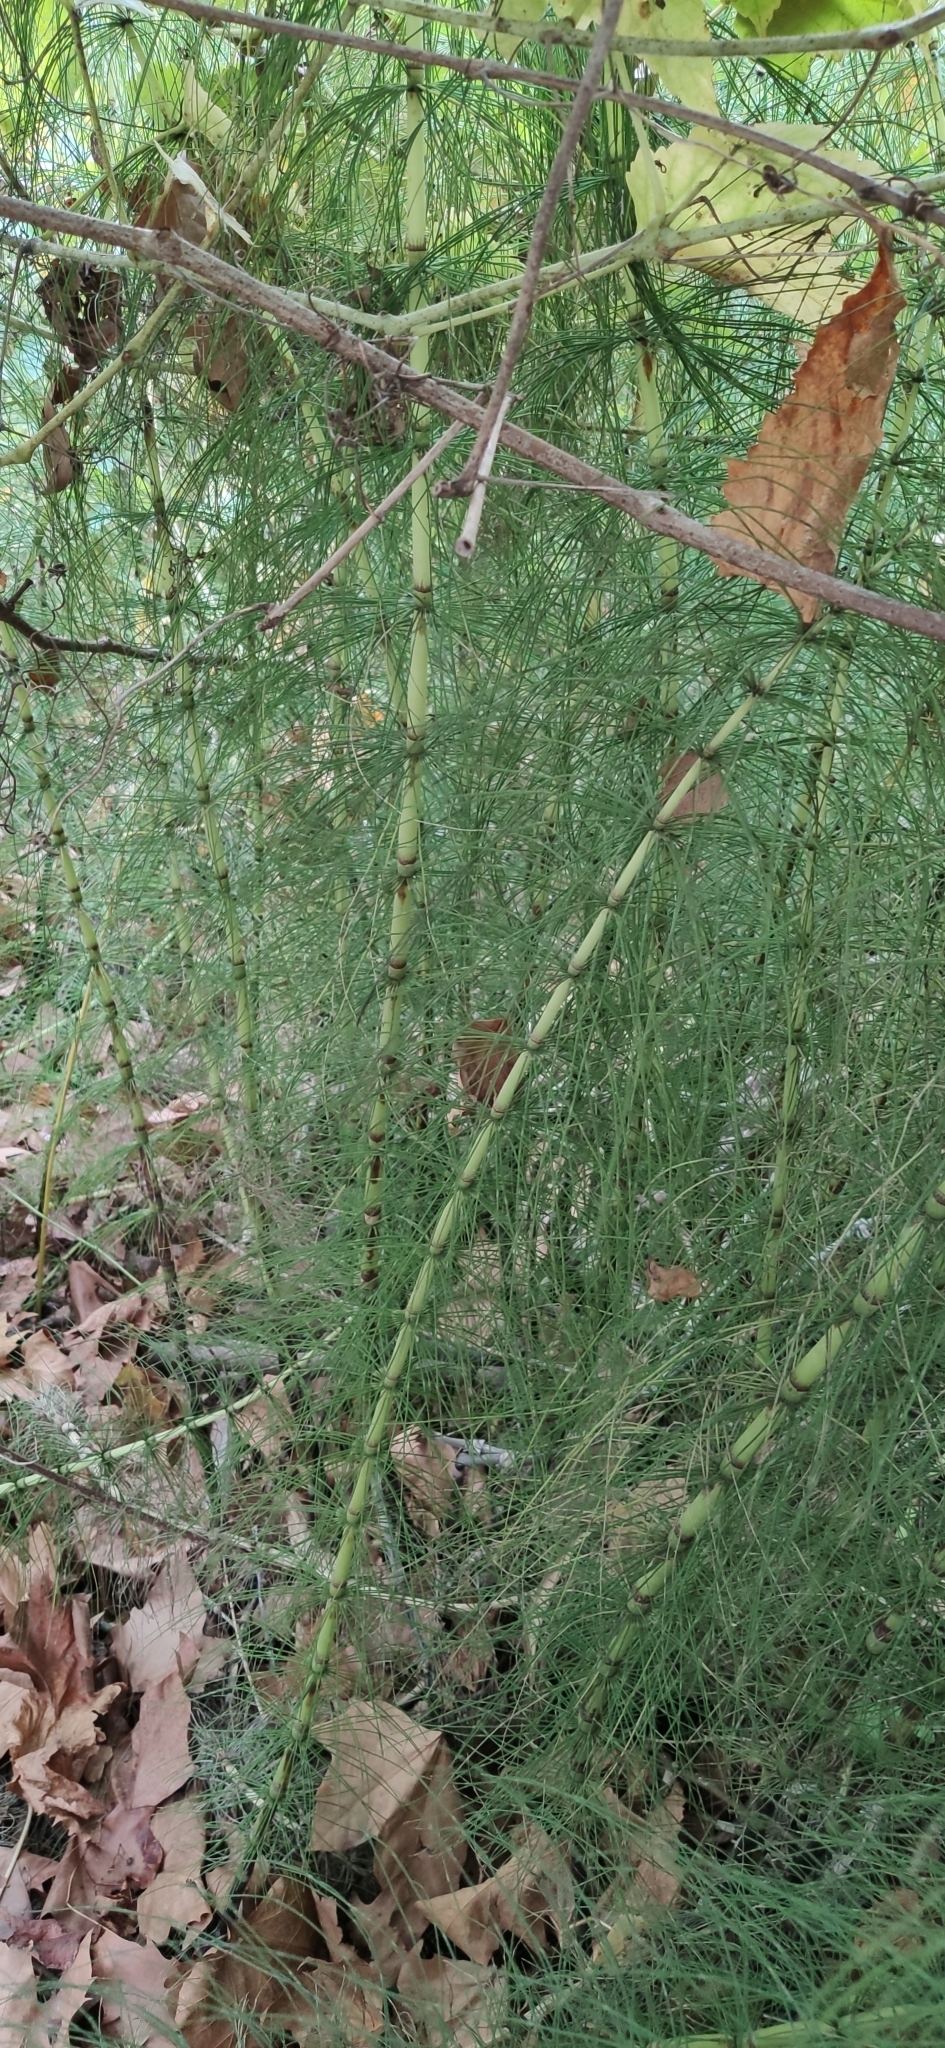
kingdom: Plantae
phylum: Tracheophyta
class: Polypodiopsida
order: Equisetales
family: Equisetaceae
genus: Equisetum
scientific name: Equisetum telmateia
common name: Great horsetail
